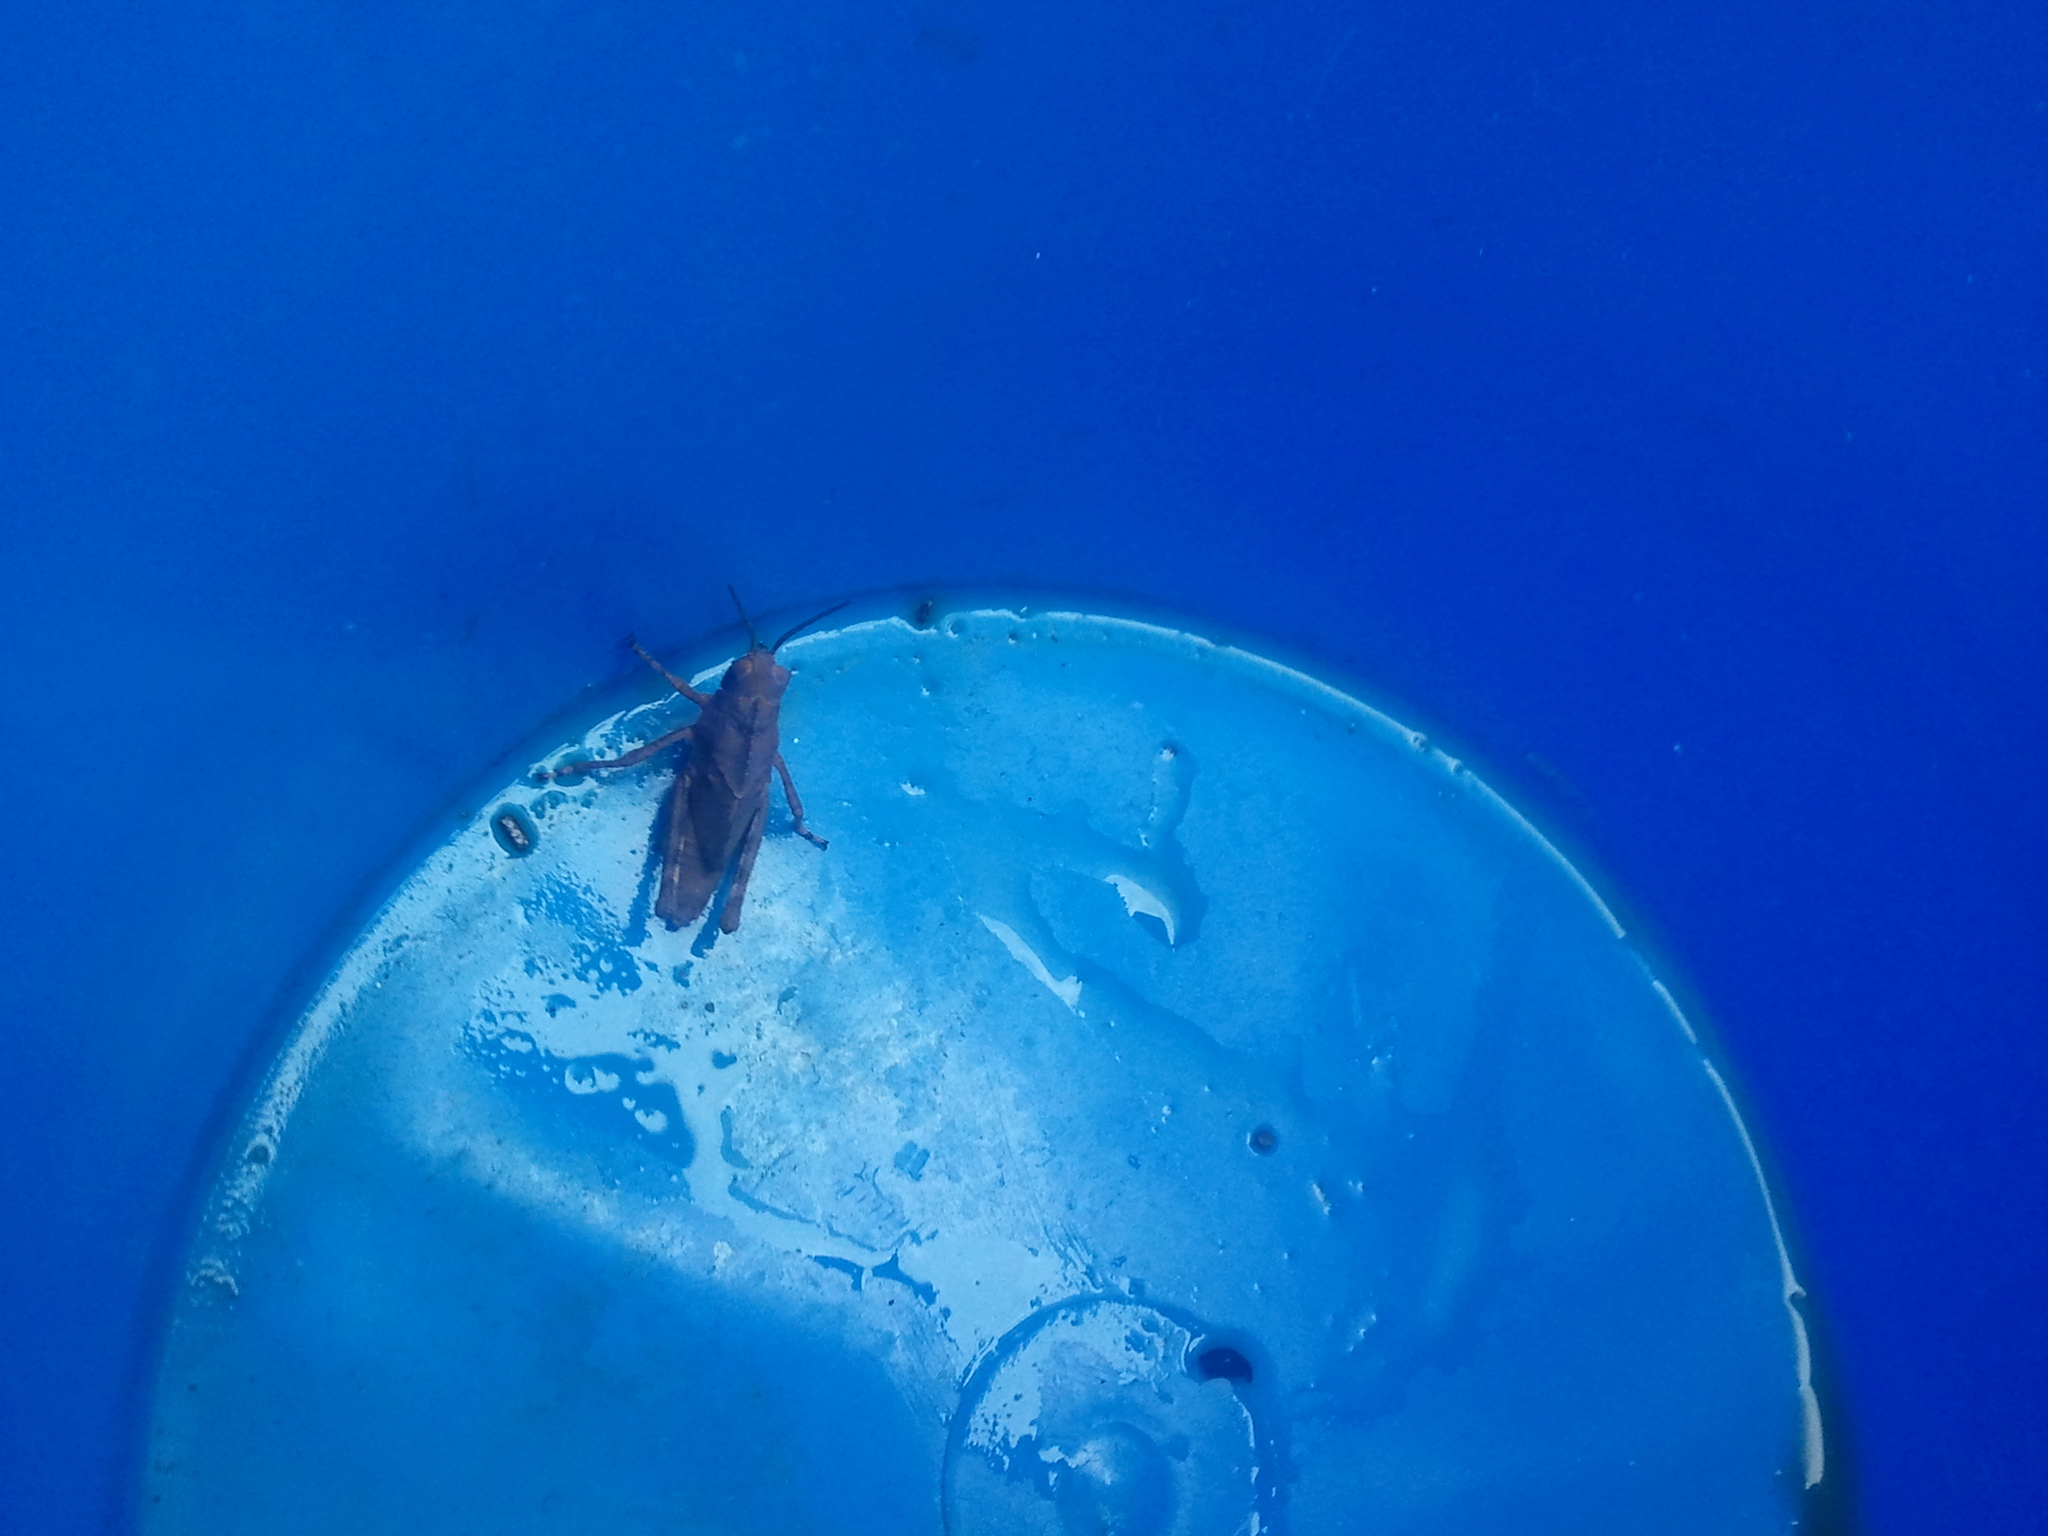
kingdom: Animalia
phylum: Arthropoda
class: Insecta
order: Orthoptera
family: Acrididae
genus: Dissosteira
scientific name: Dissosteira carolina
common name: Carolina grasshopper
